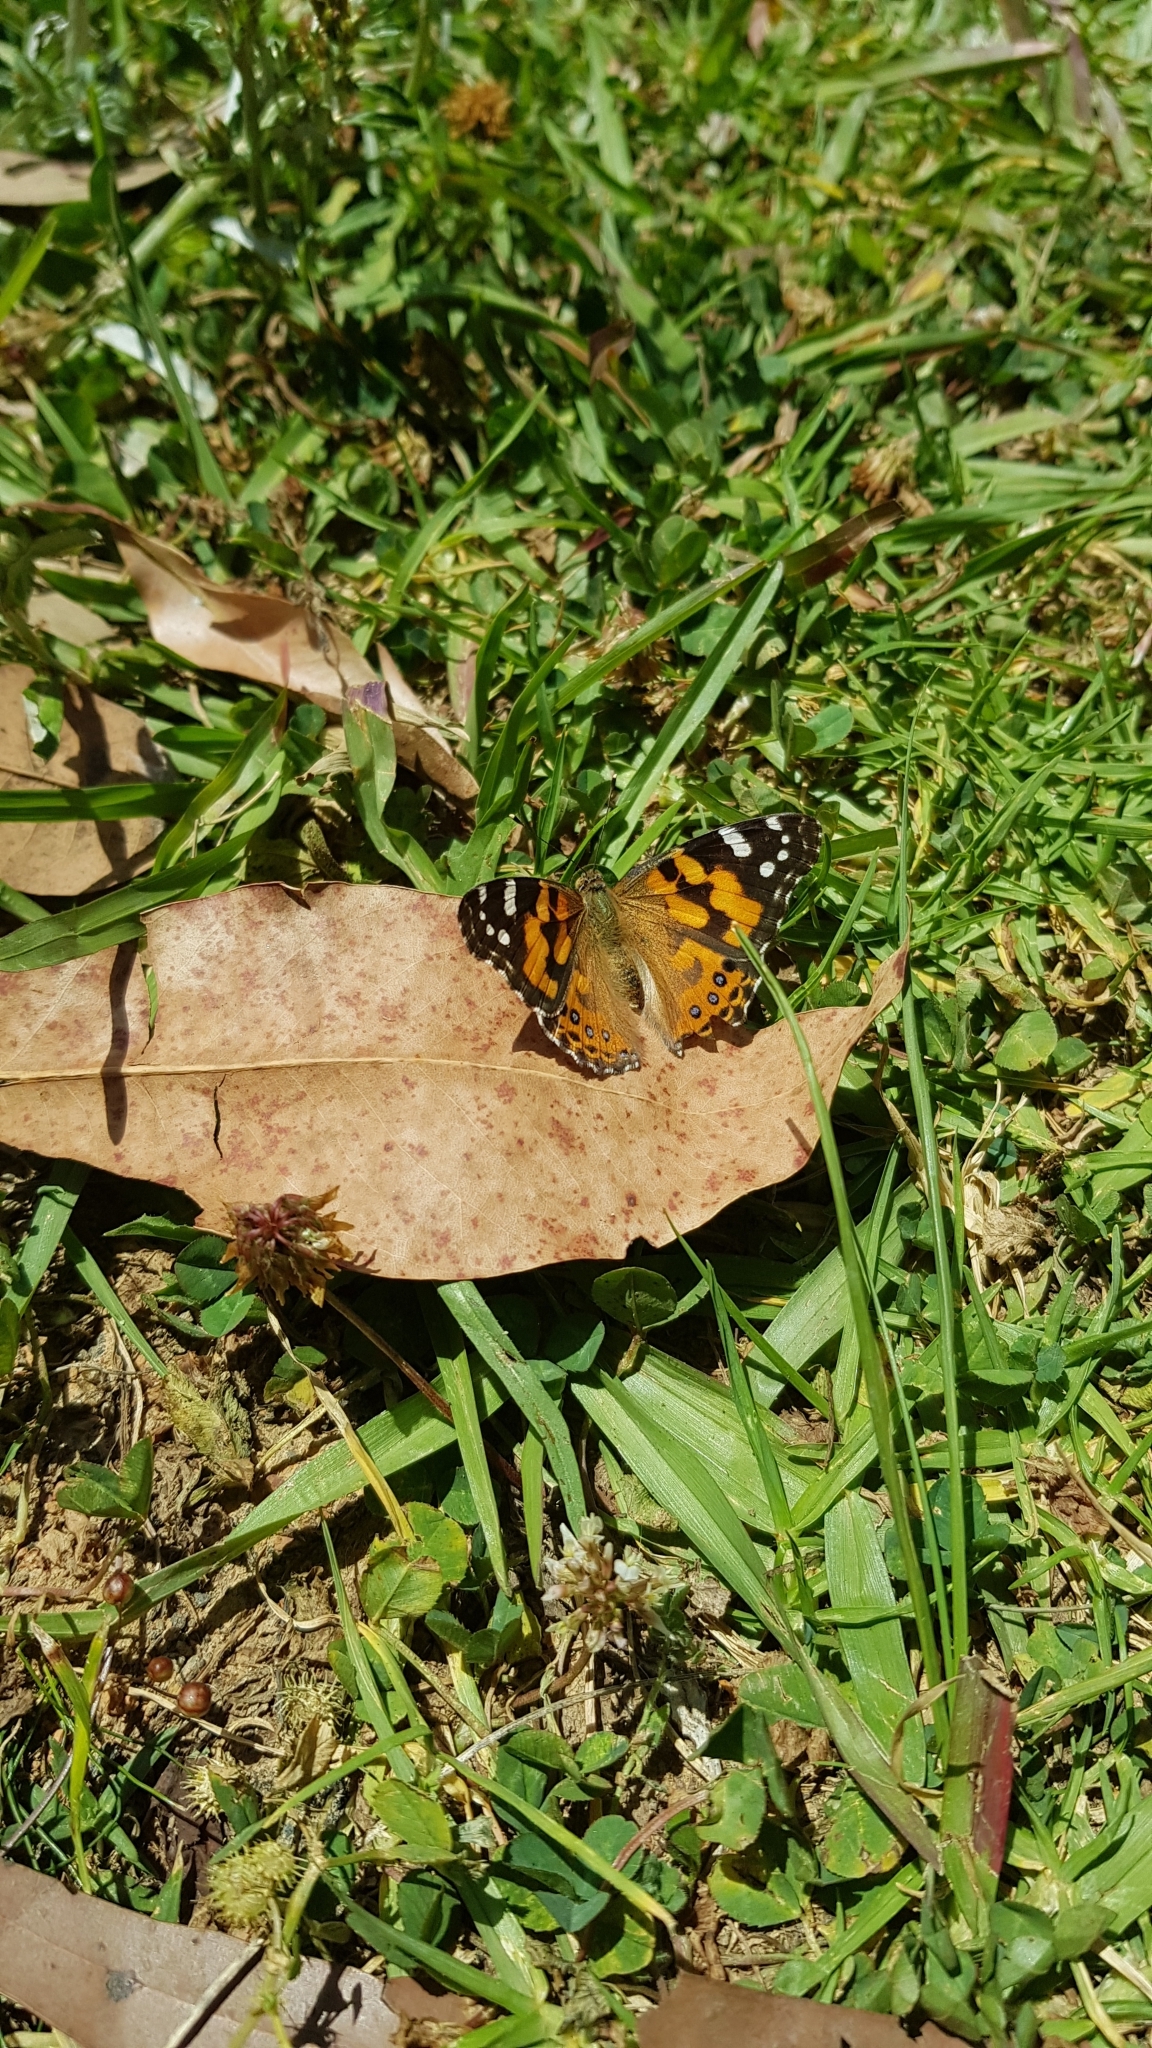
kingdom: Animalia
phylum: Arthropoda
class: Insecta
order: Lepidoptera
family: Nymphalidae
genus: Vanessa
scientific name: Vanessa kershawi
